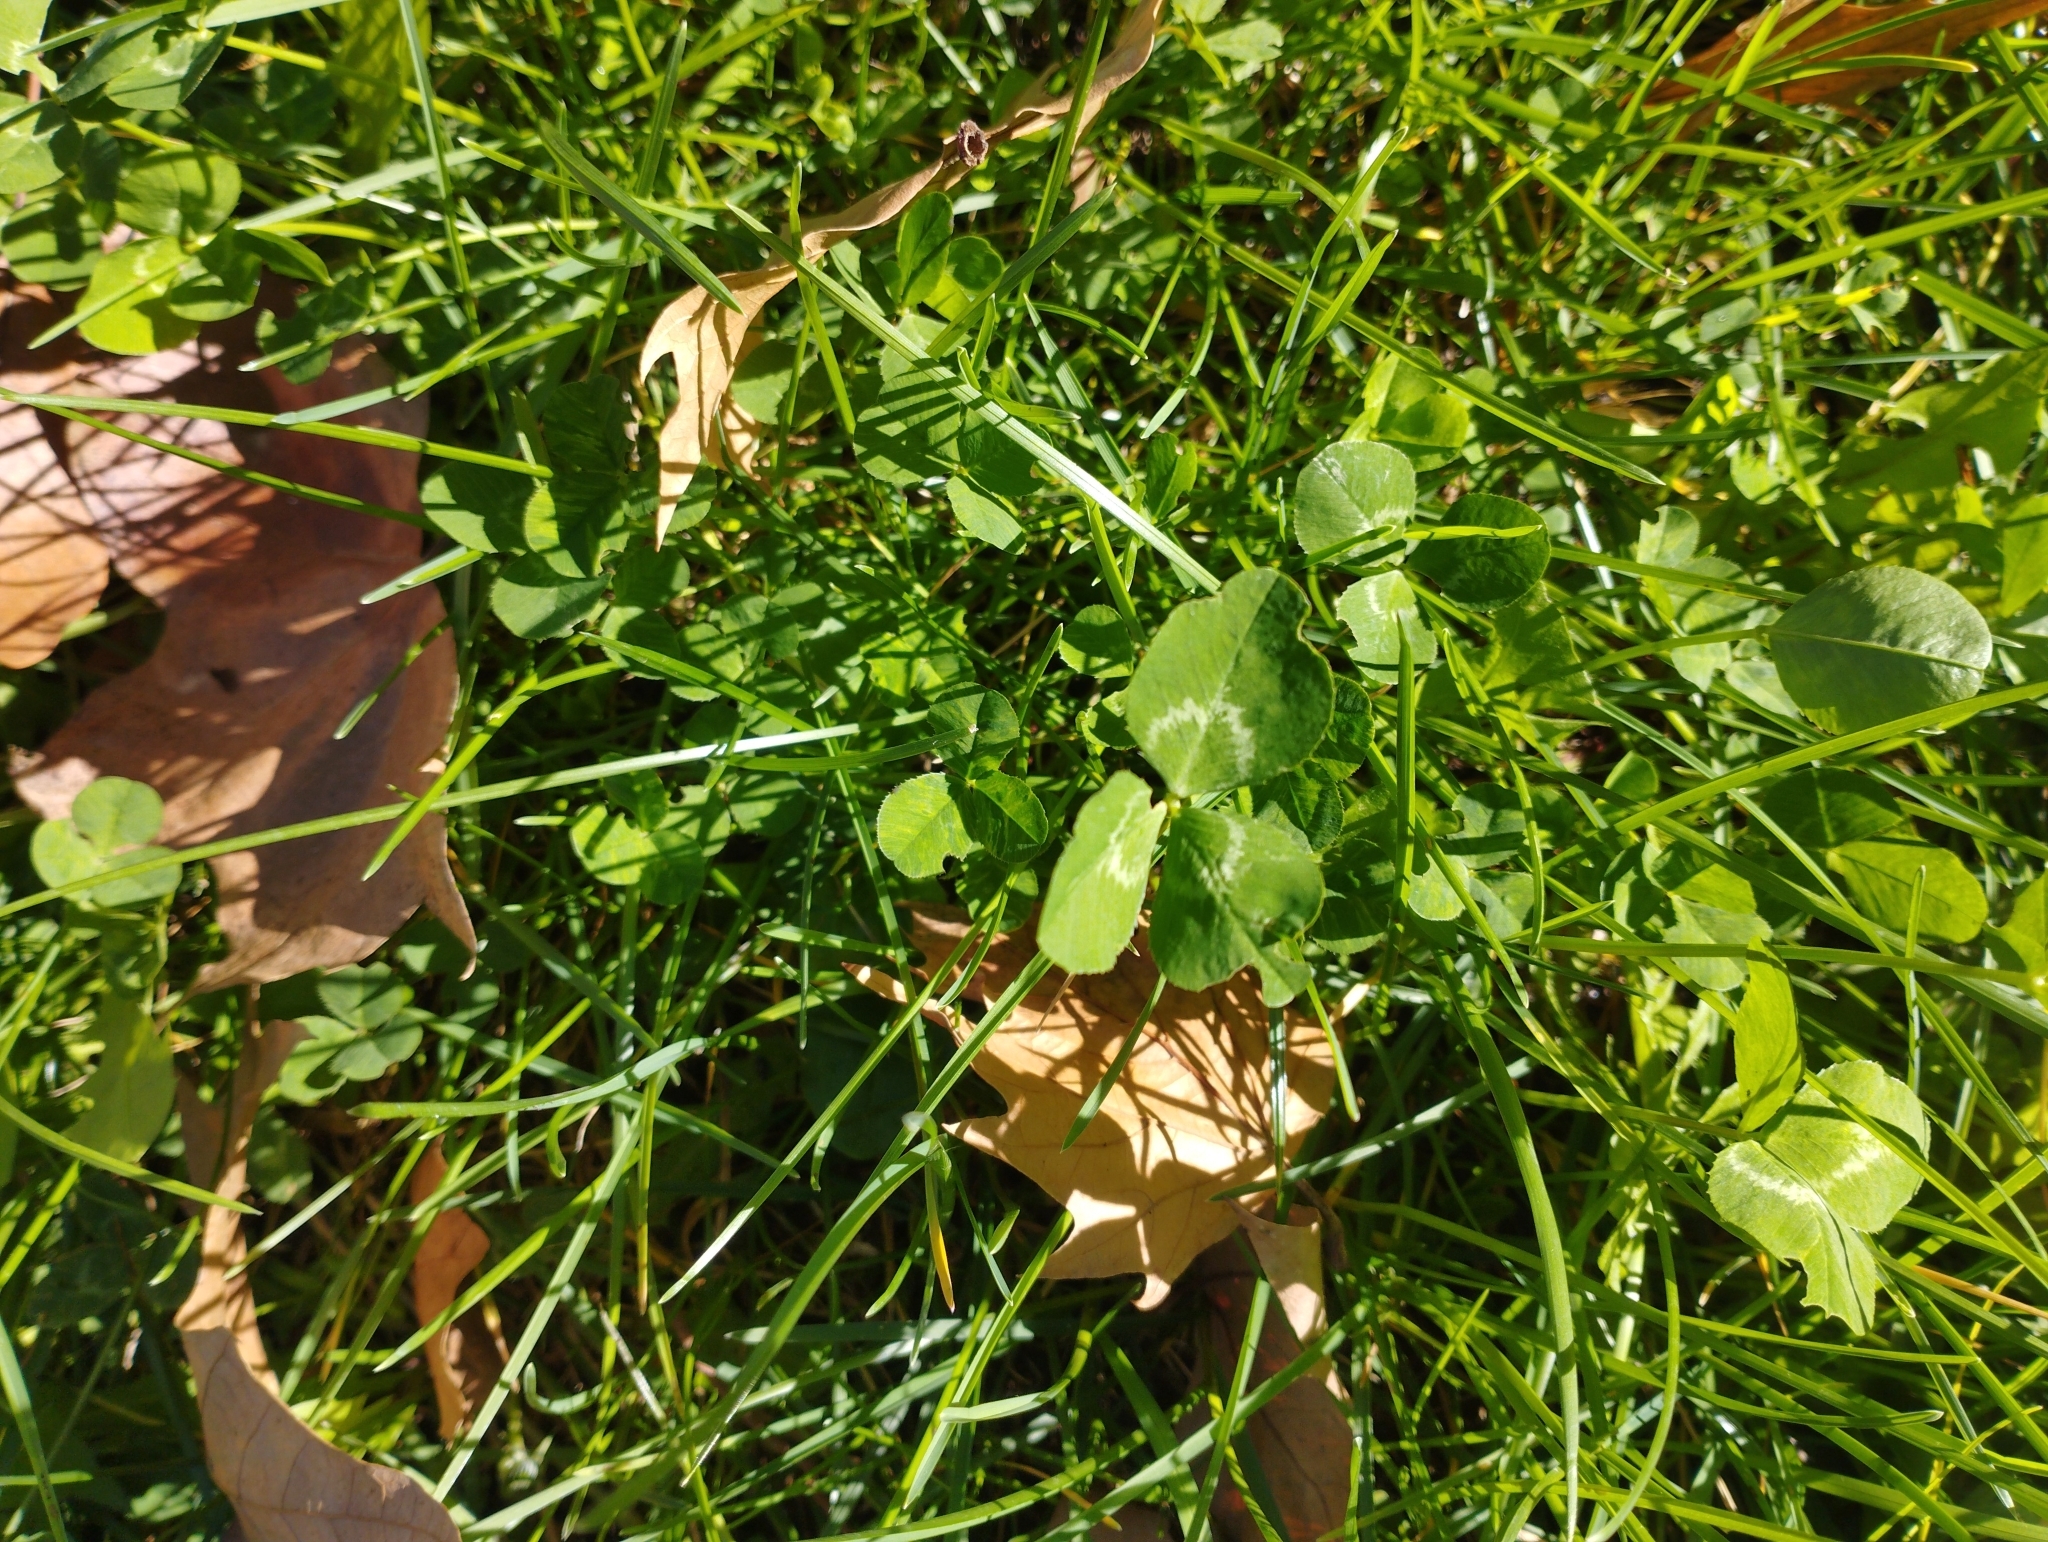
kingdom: Plantae
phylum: Tracheophyta
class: Magnoliopsida
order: Fabales
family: Fabaceae
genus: Trifolium
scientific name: Trifolium repens
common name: White clover
